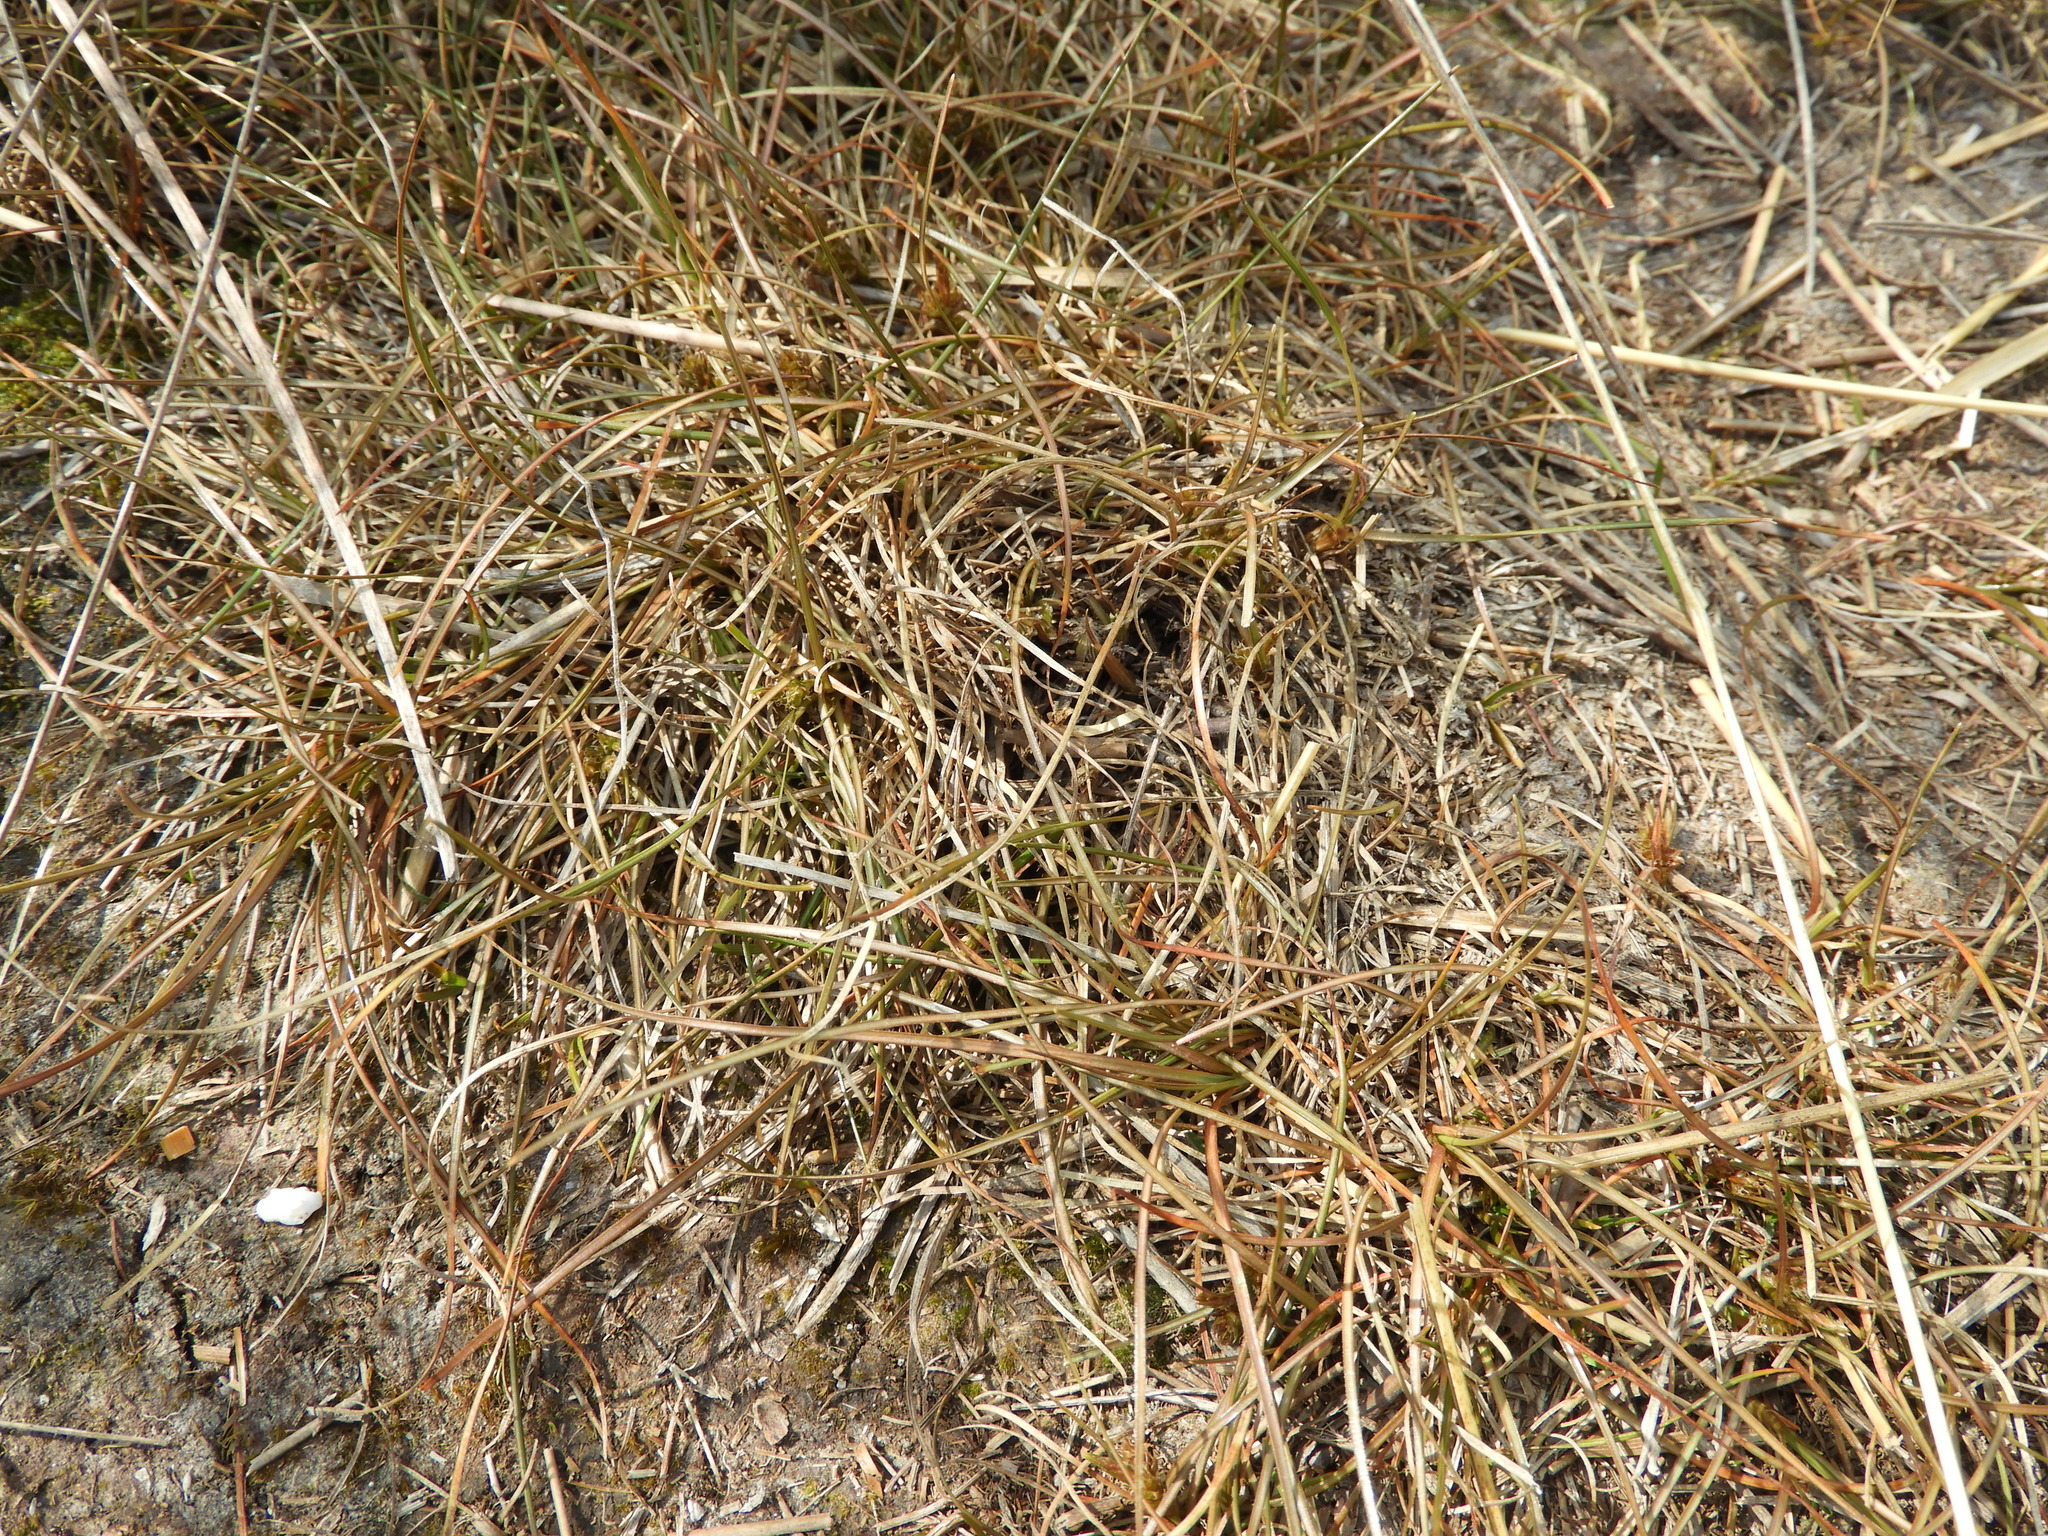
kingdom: Plantae
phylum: Tracheophyta
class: Liliopsida
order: Poales
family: Cyperaceae
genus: Carex
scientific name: Carex libera
